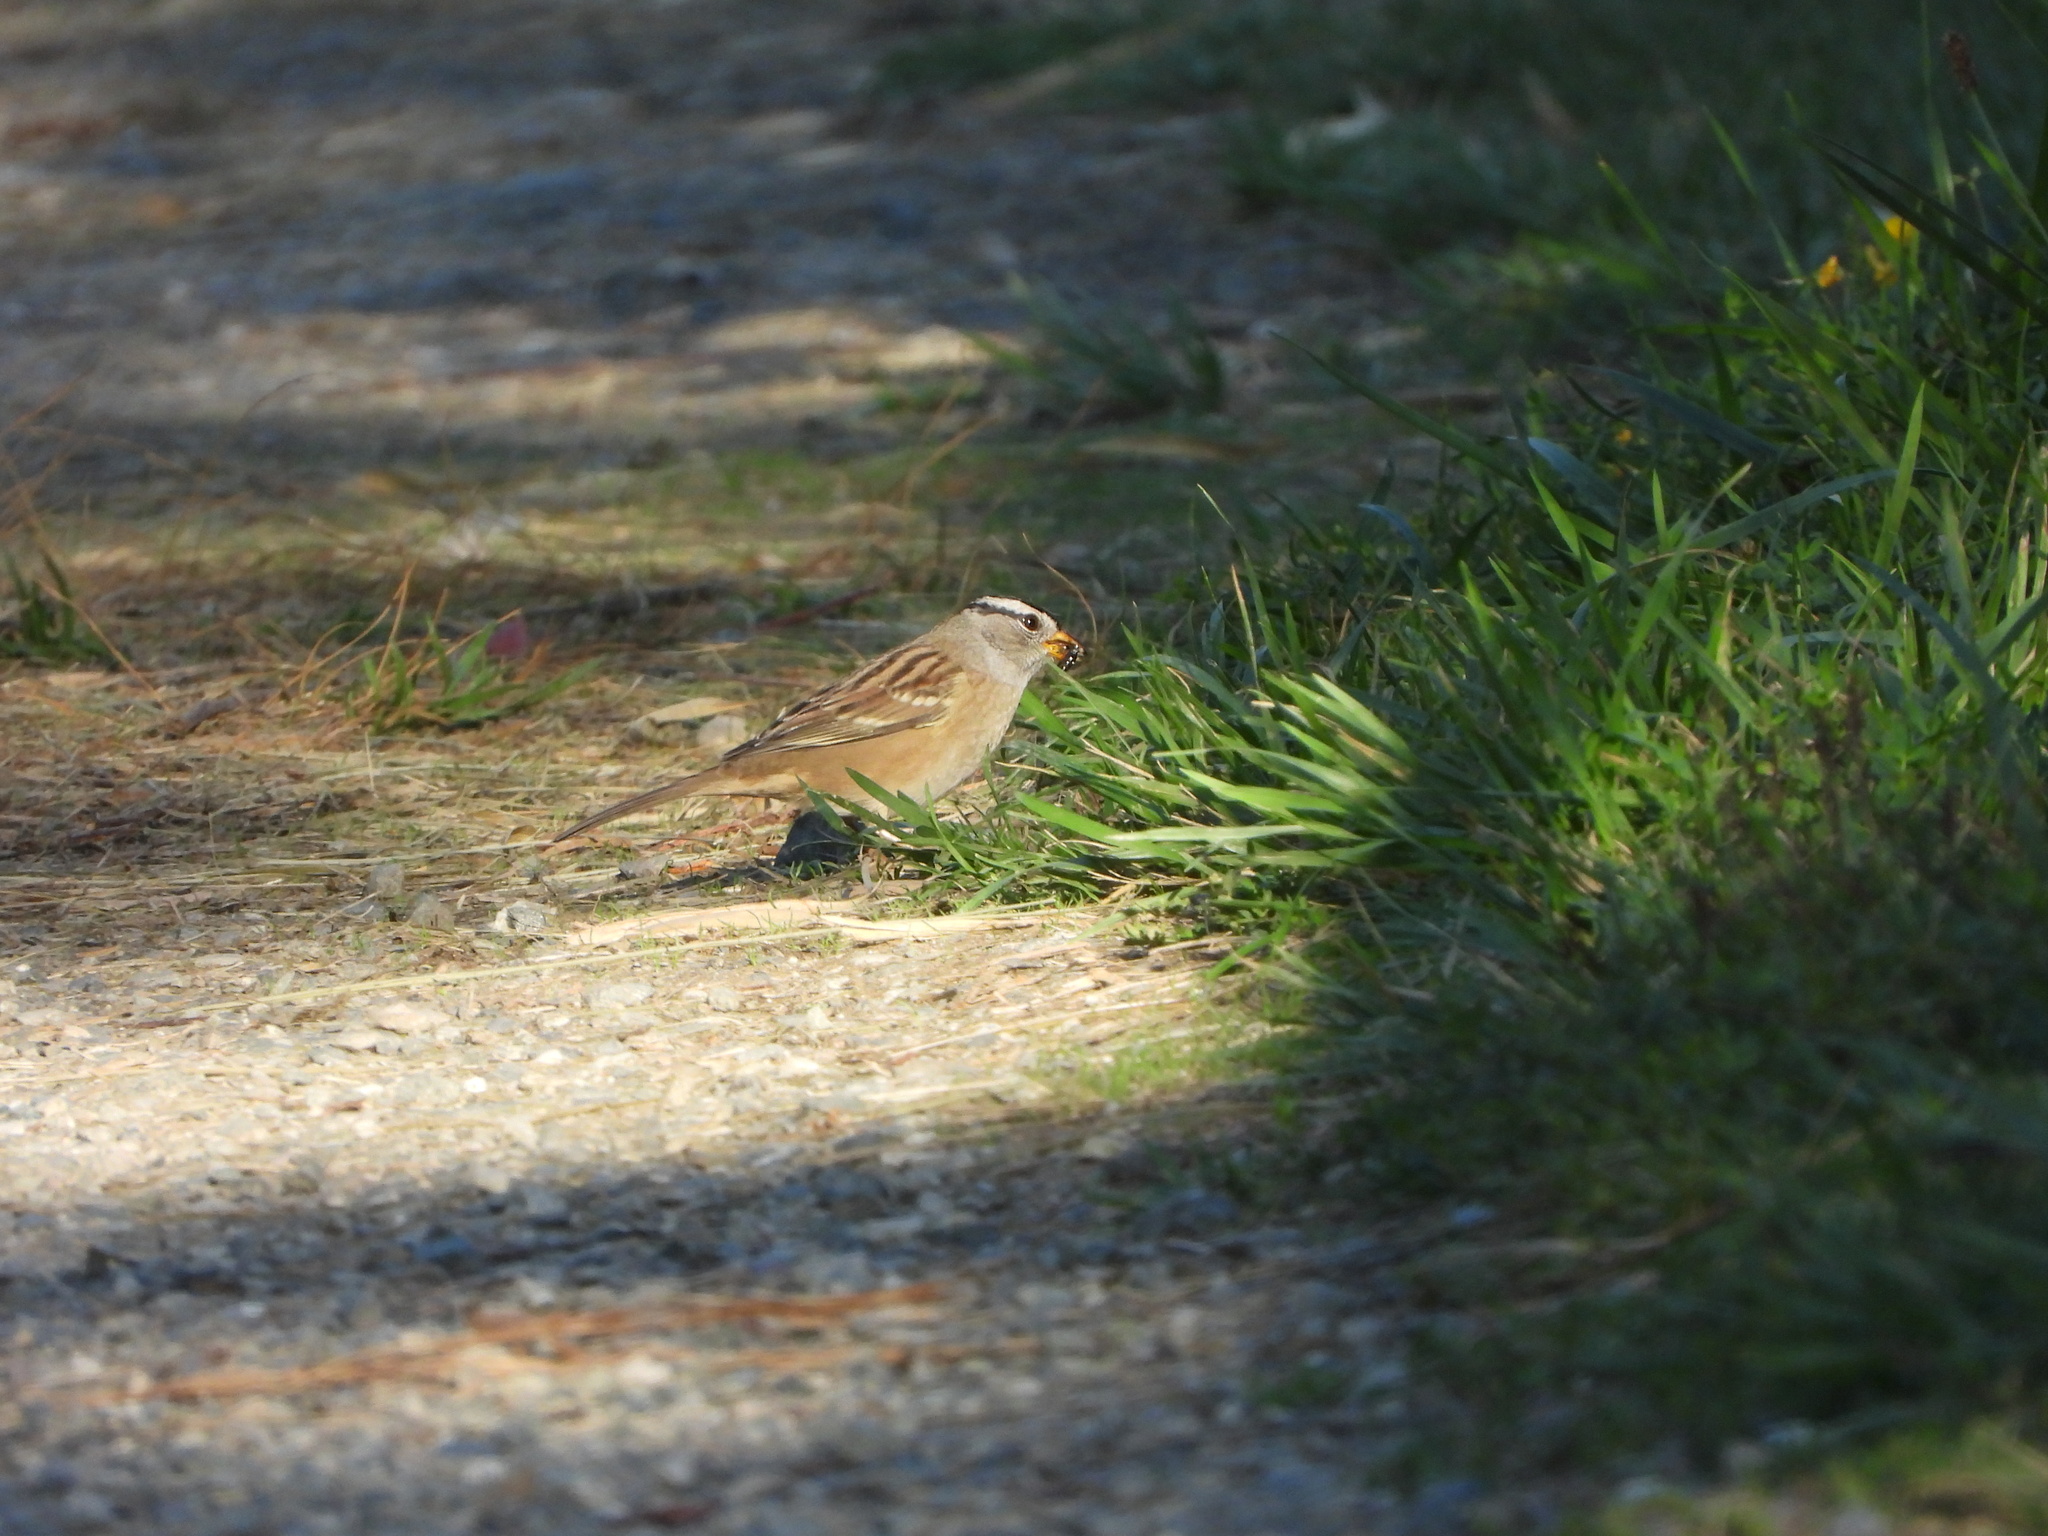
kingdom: Animalia
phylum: Chordata
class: Aves
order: Passeriformes
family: Passerellidae
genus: Zonotrichia
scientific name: Zonotrichia leucophrys
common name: White-crowned sparrow
